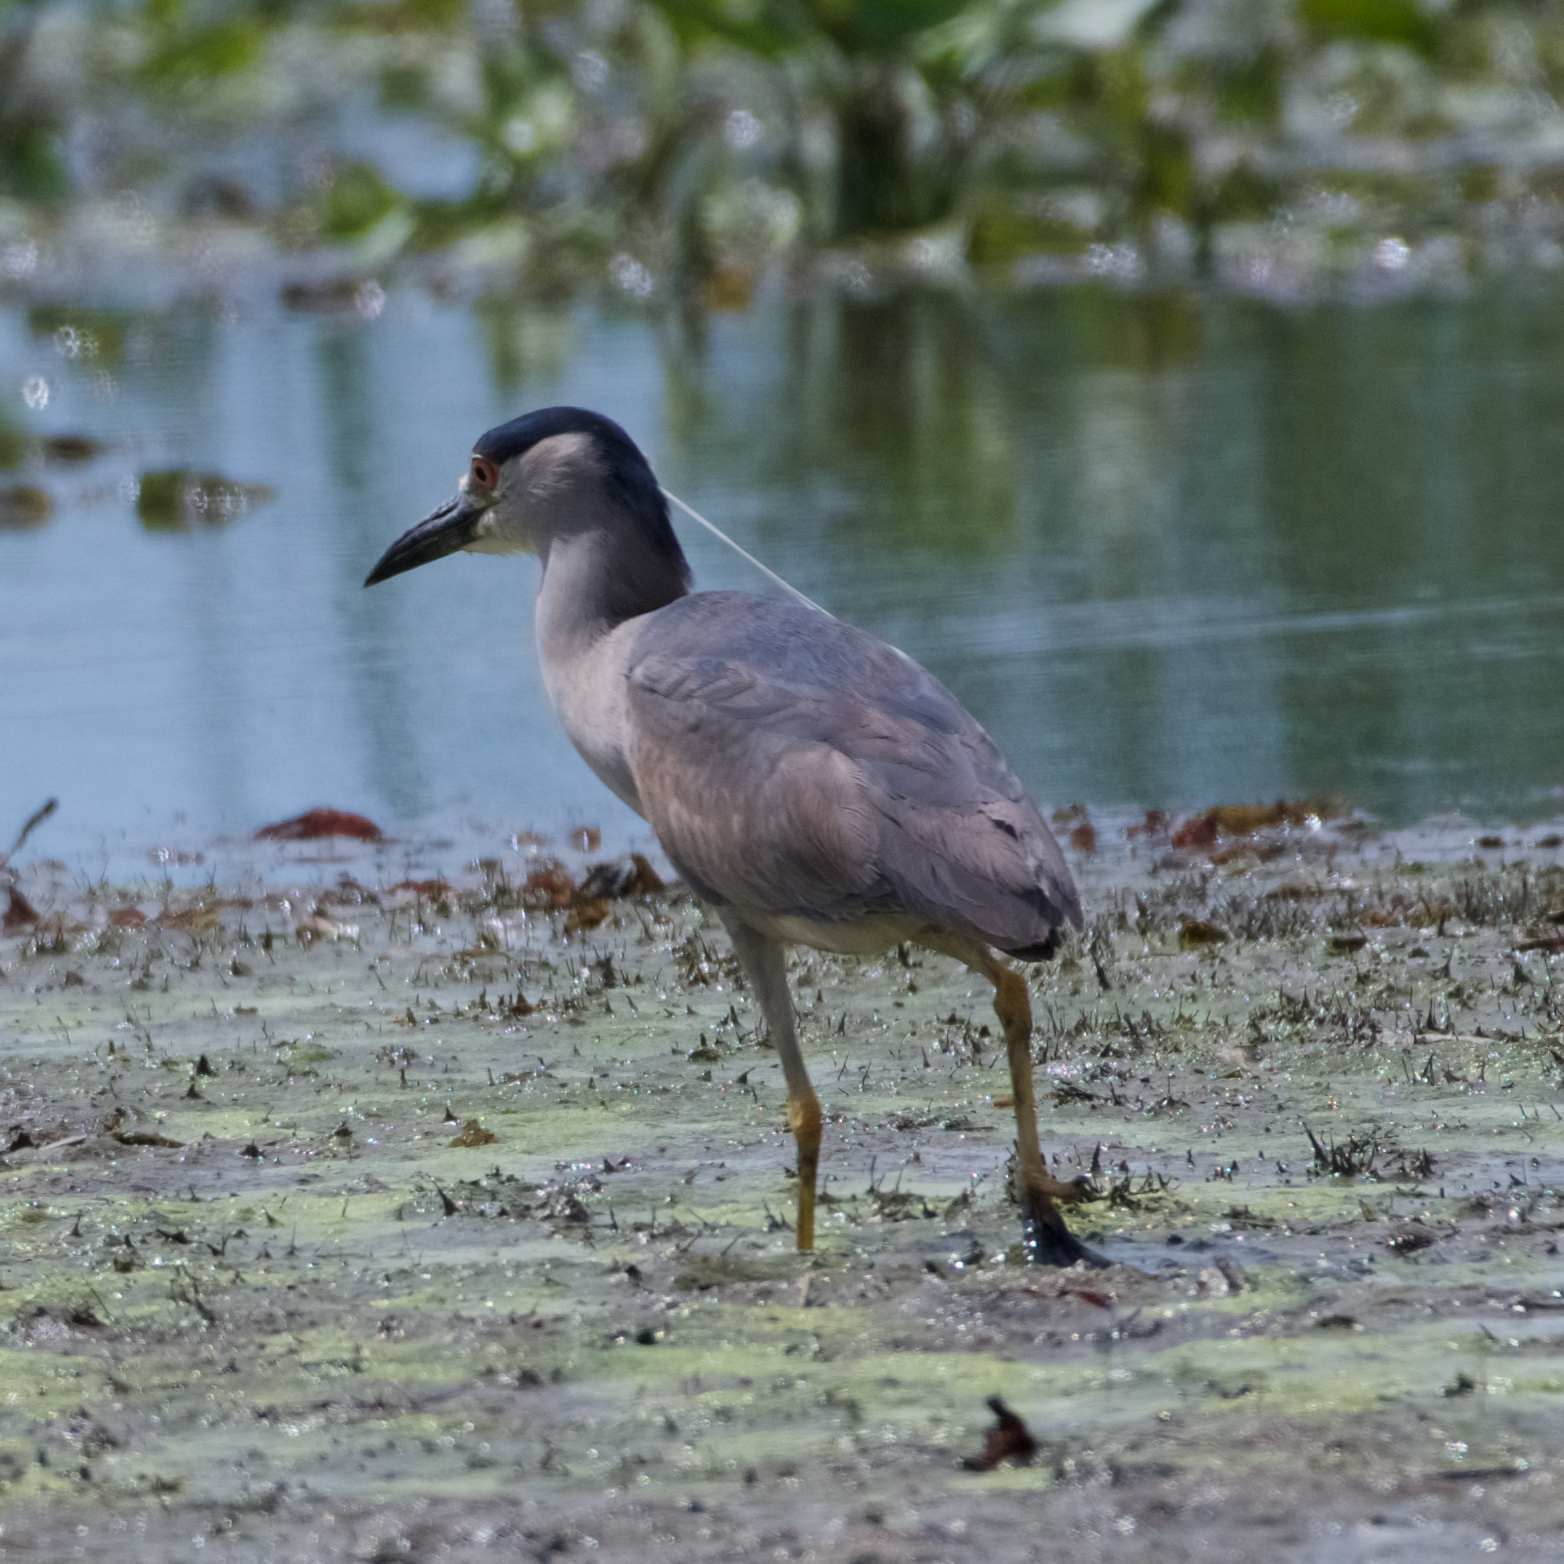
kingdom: Animalia
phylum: Chordata
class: Aves
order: Pelecaniformes
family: Ardeidae
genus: Nycticorax
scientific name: Nycticorax nycticorax
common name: Black-crowned night heron
